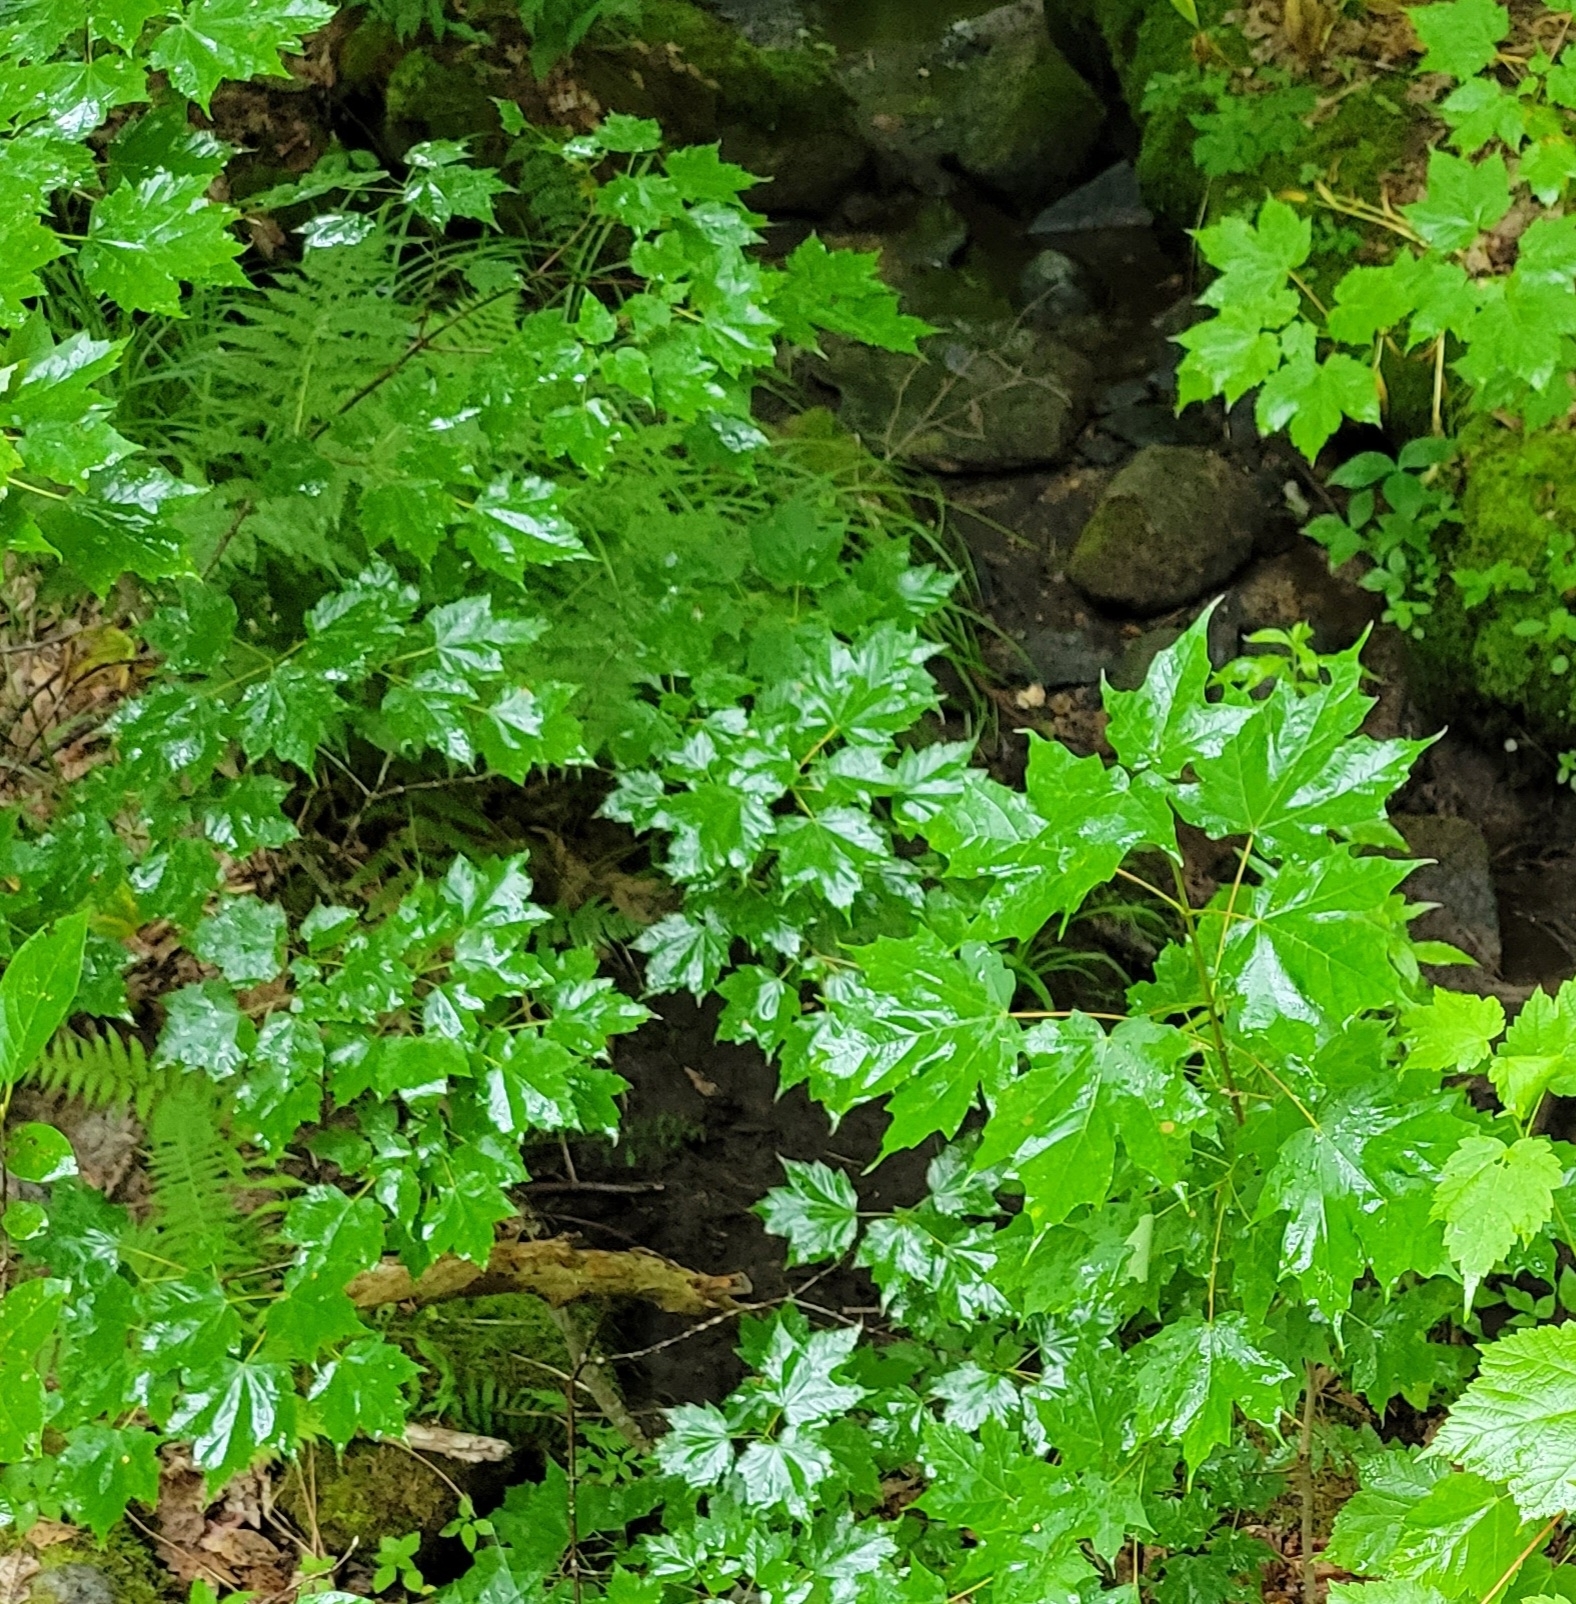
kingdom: Plantae
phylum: Tracheophyta
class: Magnoliopsida
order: Sapindales
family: Sapindaceae
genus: Acer
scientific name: Acer saccharum
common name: Sugar maple
